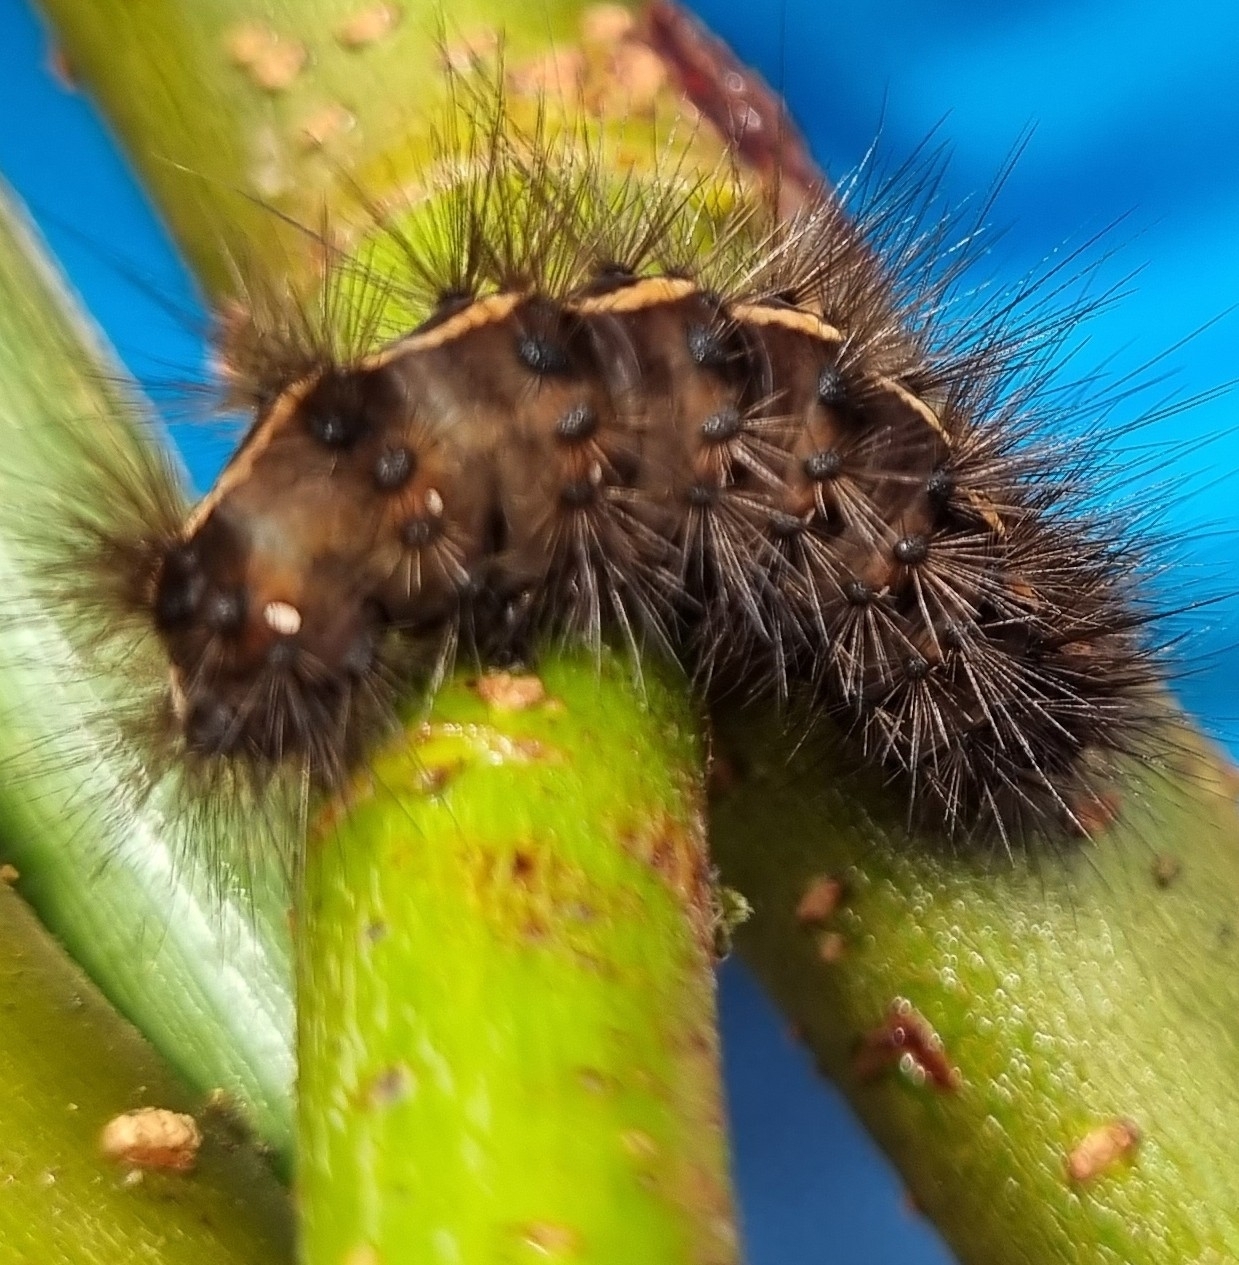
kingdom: Animalia
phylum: Arthropoda
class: Insecta
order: Lepidoptera
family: Erebidae
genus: Spilosoma
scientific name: Spilosoma lubricipeda
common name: White ermine
